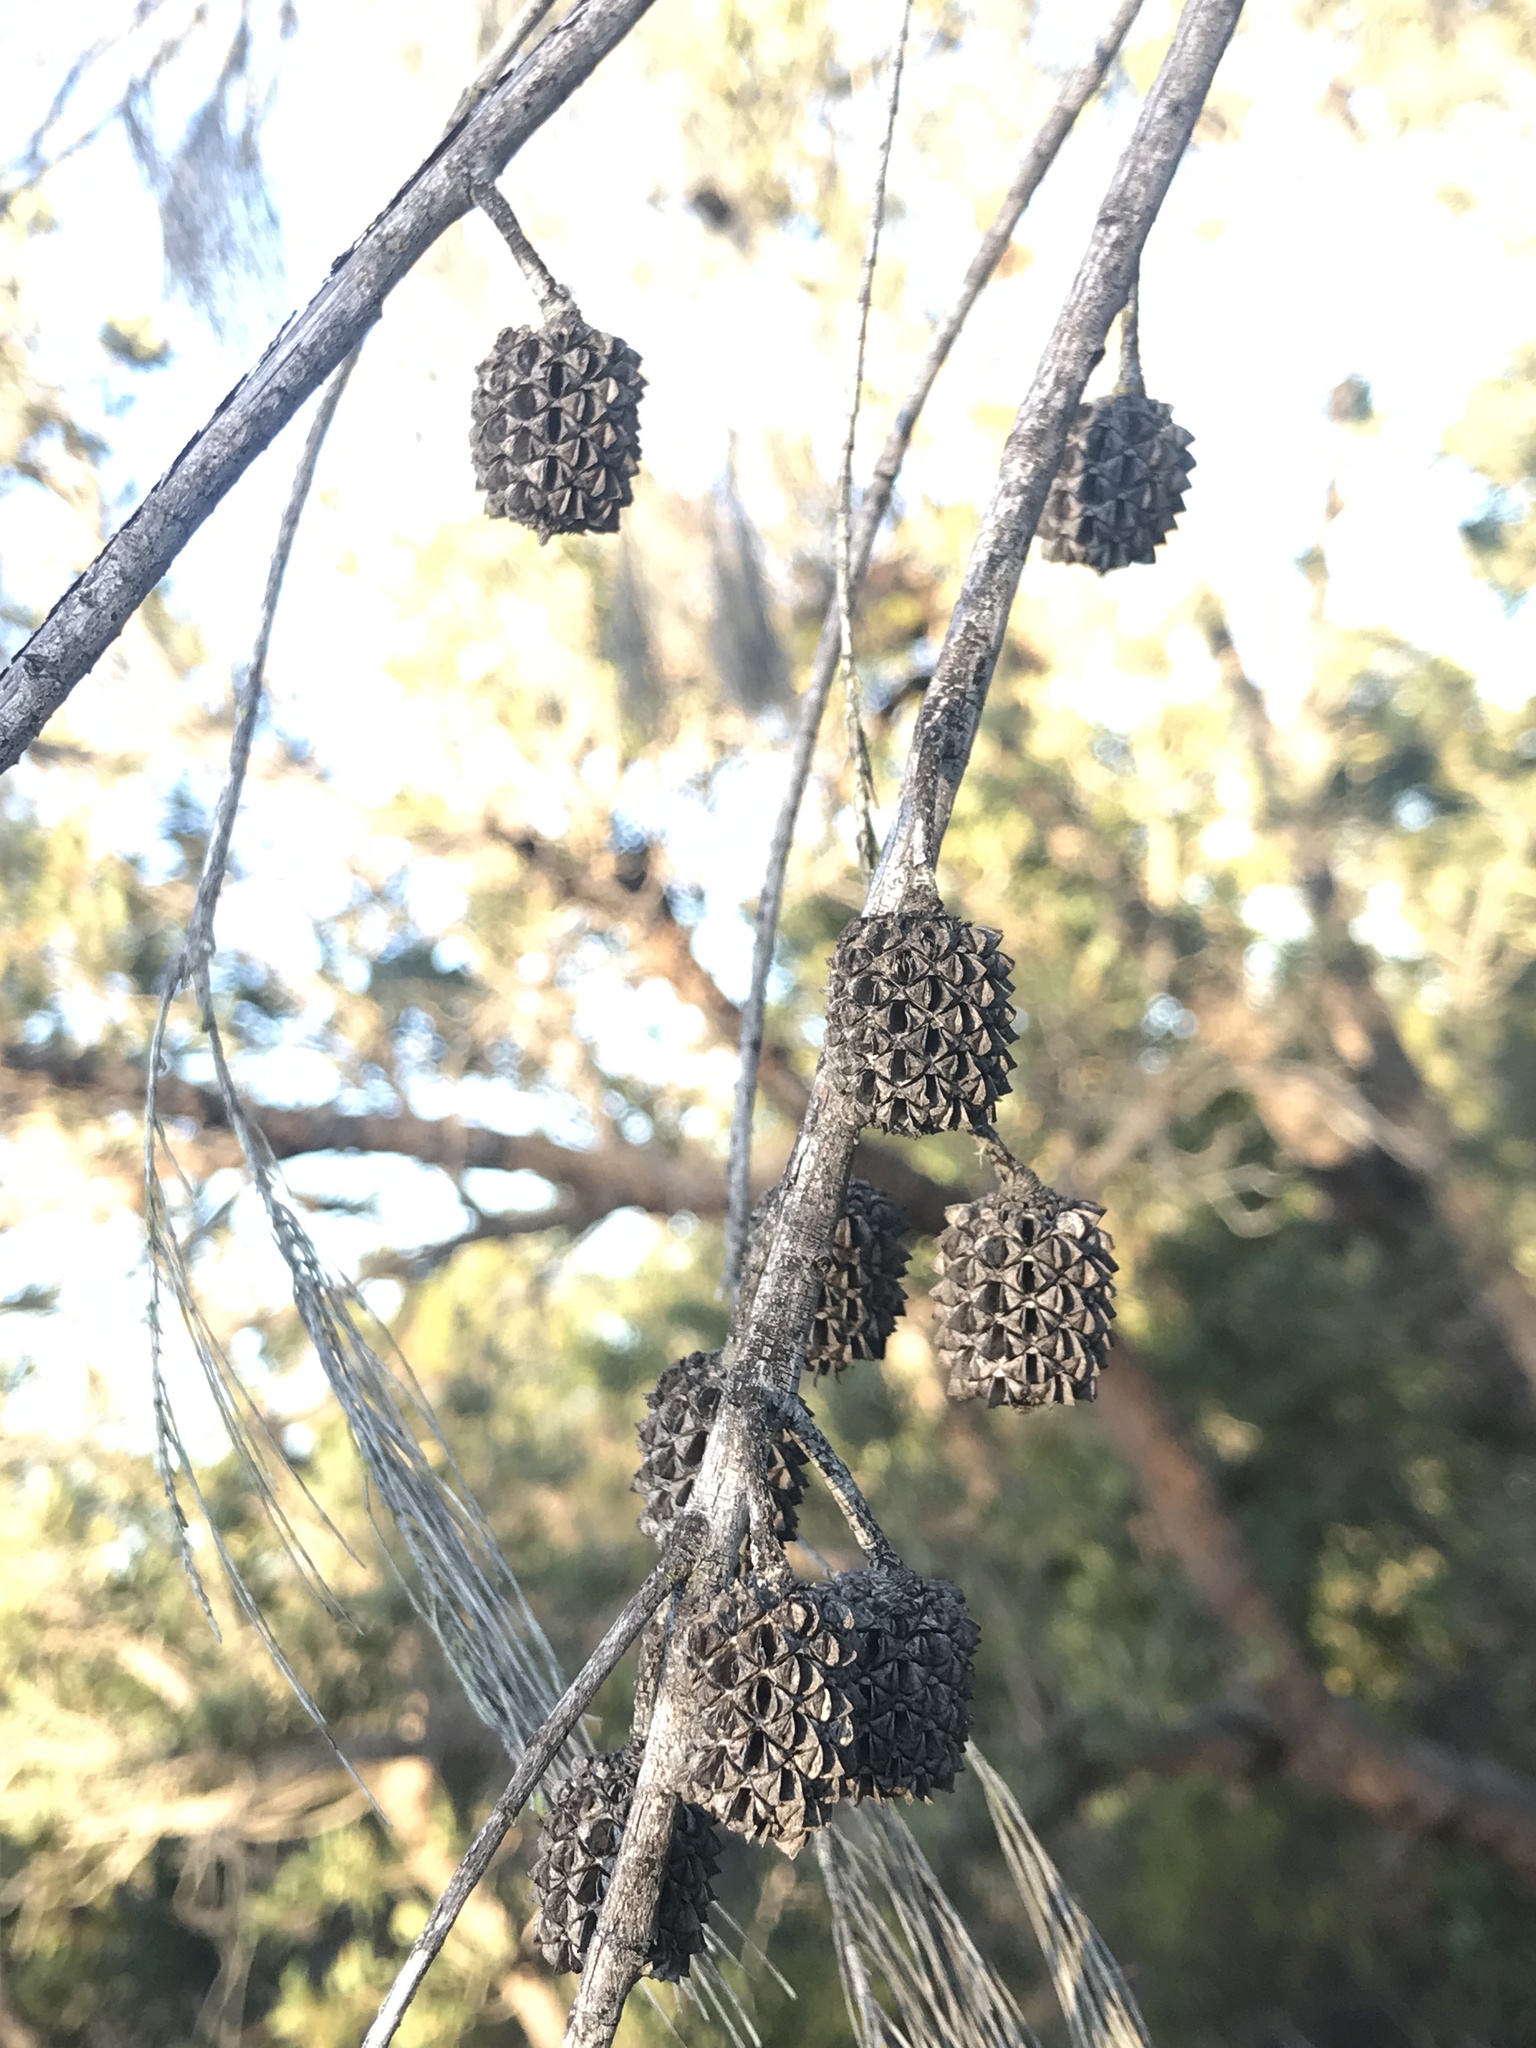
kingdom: Plantae
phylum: Tracheophyta
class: Magnoliopsida
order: Fagales
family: Casuarinaceae
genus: Allocasuarina
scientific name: Allocasuarina littoralis
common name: Black she-oak
